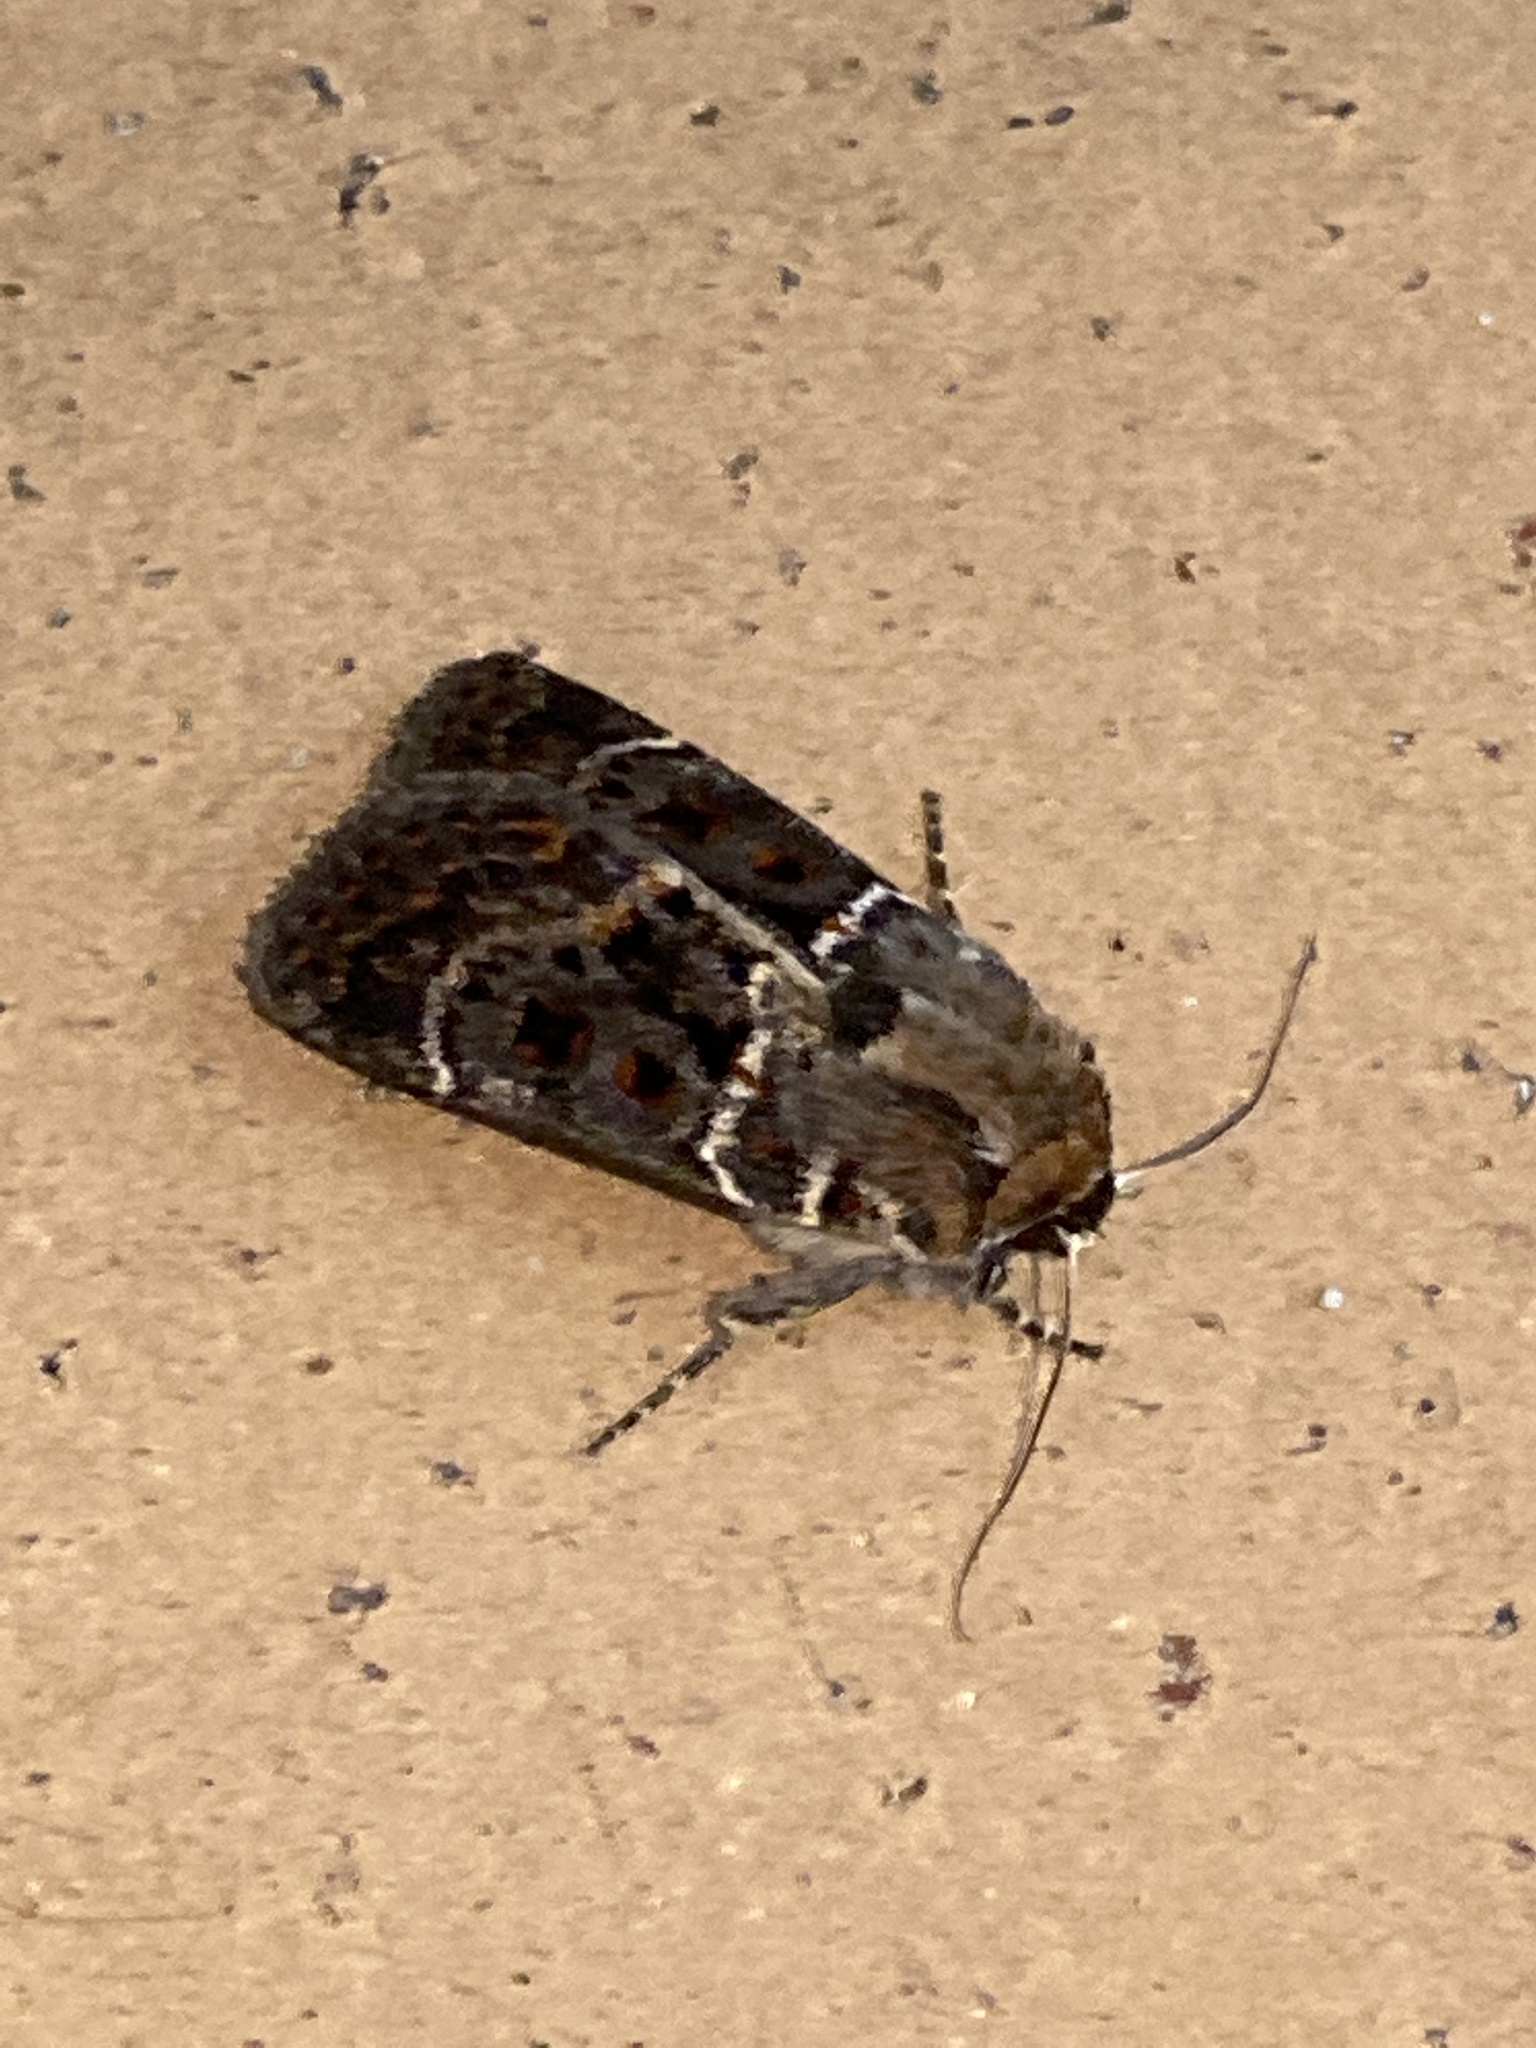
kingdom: Animalia
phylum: Arthropoda
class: Insecta
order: Lepidoptera
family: Noctuidae
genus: Proteuxoa
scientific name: Proteuxoa sanguinipuncta
